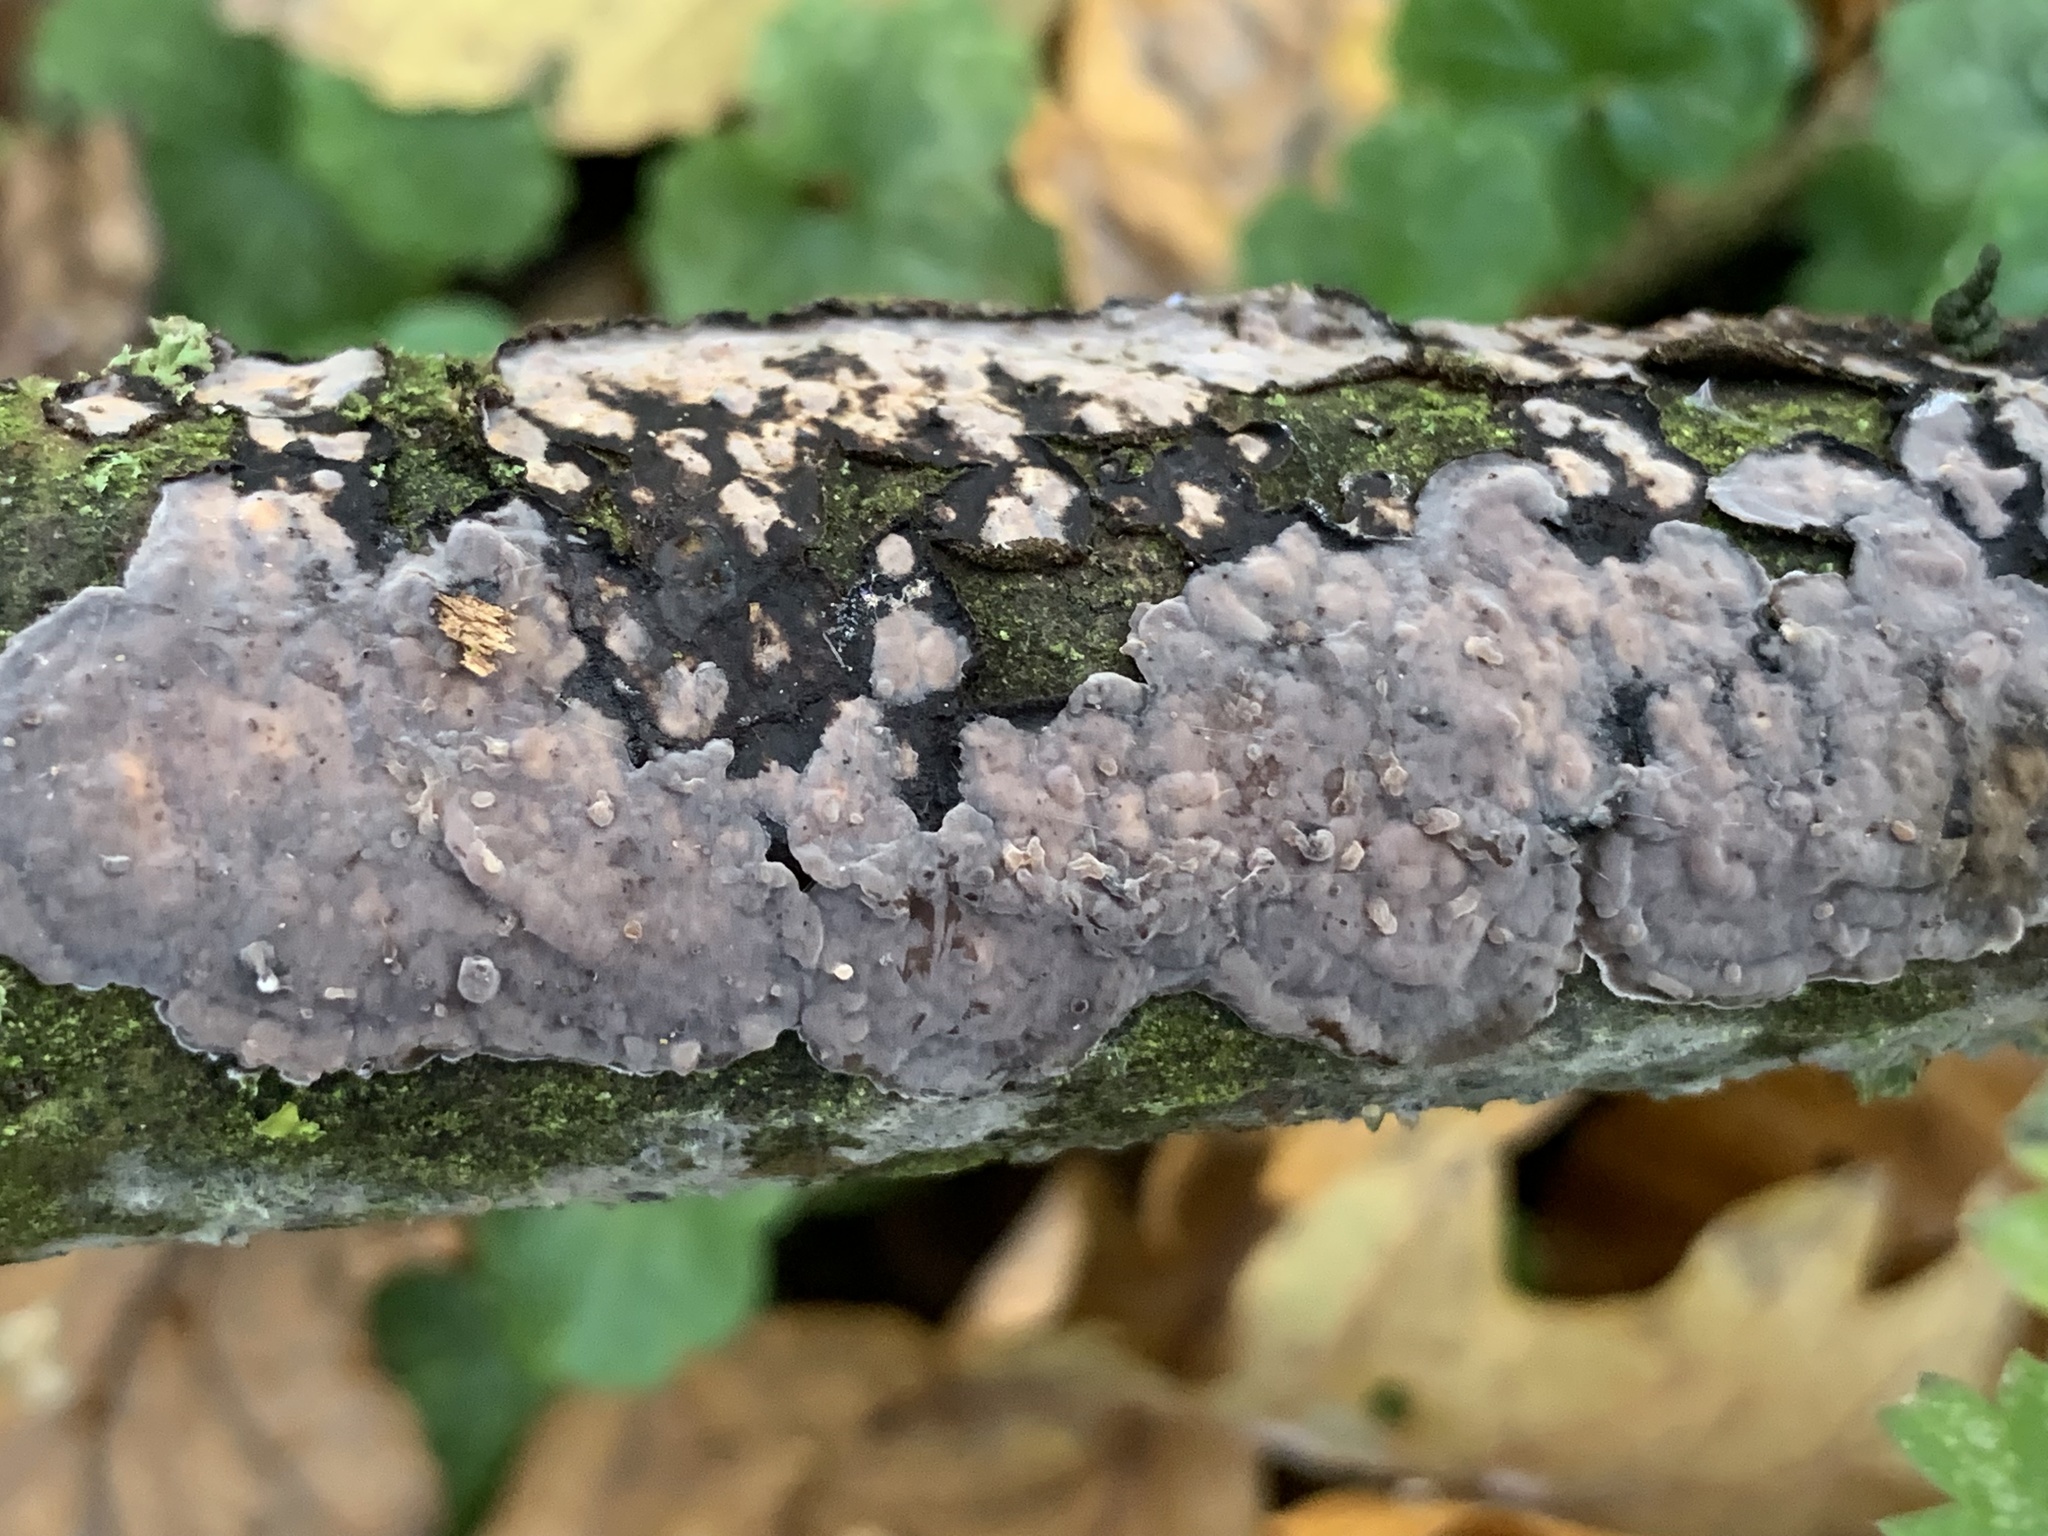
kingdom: Fungi
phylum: Basidiomycota
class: Agaricomycetes
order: Russulales
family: Peniophoraceae
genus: Peniophora
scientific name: Peniophora quercina
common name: Oak crust
